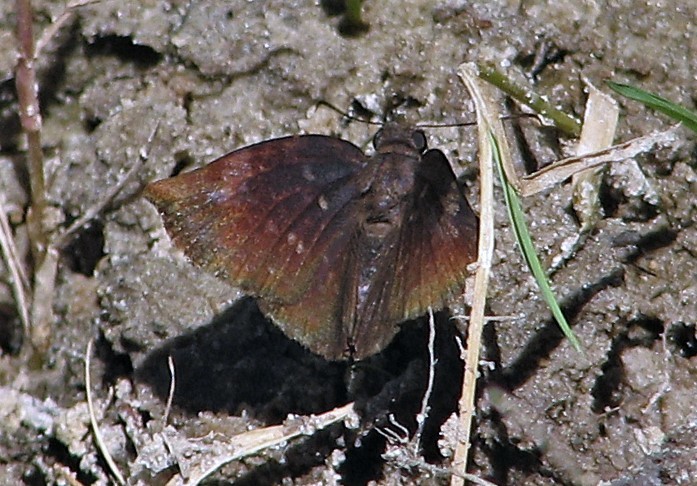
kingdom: Animalia
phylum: Arthropoda
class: Insecta
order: Lepidoptera
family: Hesperiidae
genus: Achlyodes
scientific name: Achlyodes thraso
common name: Sickle-winged skipper
